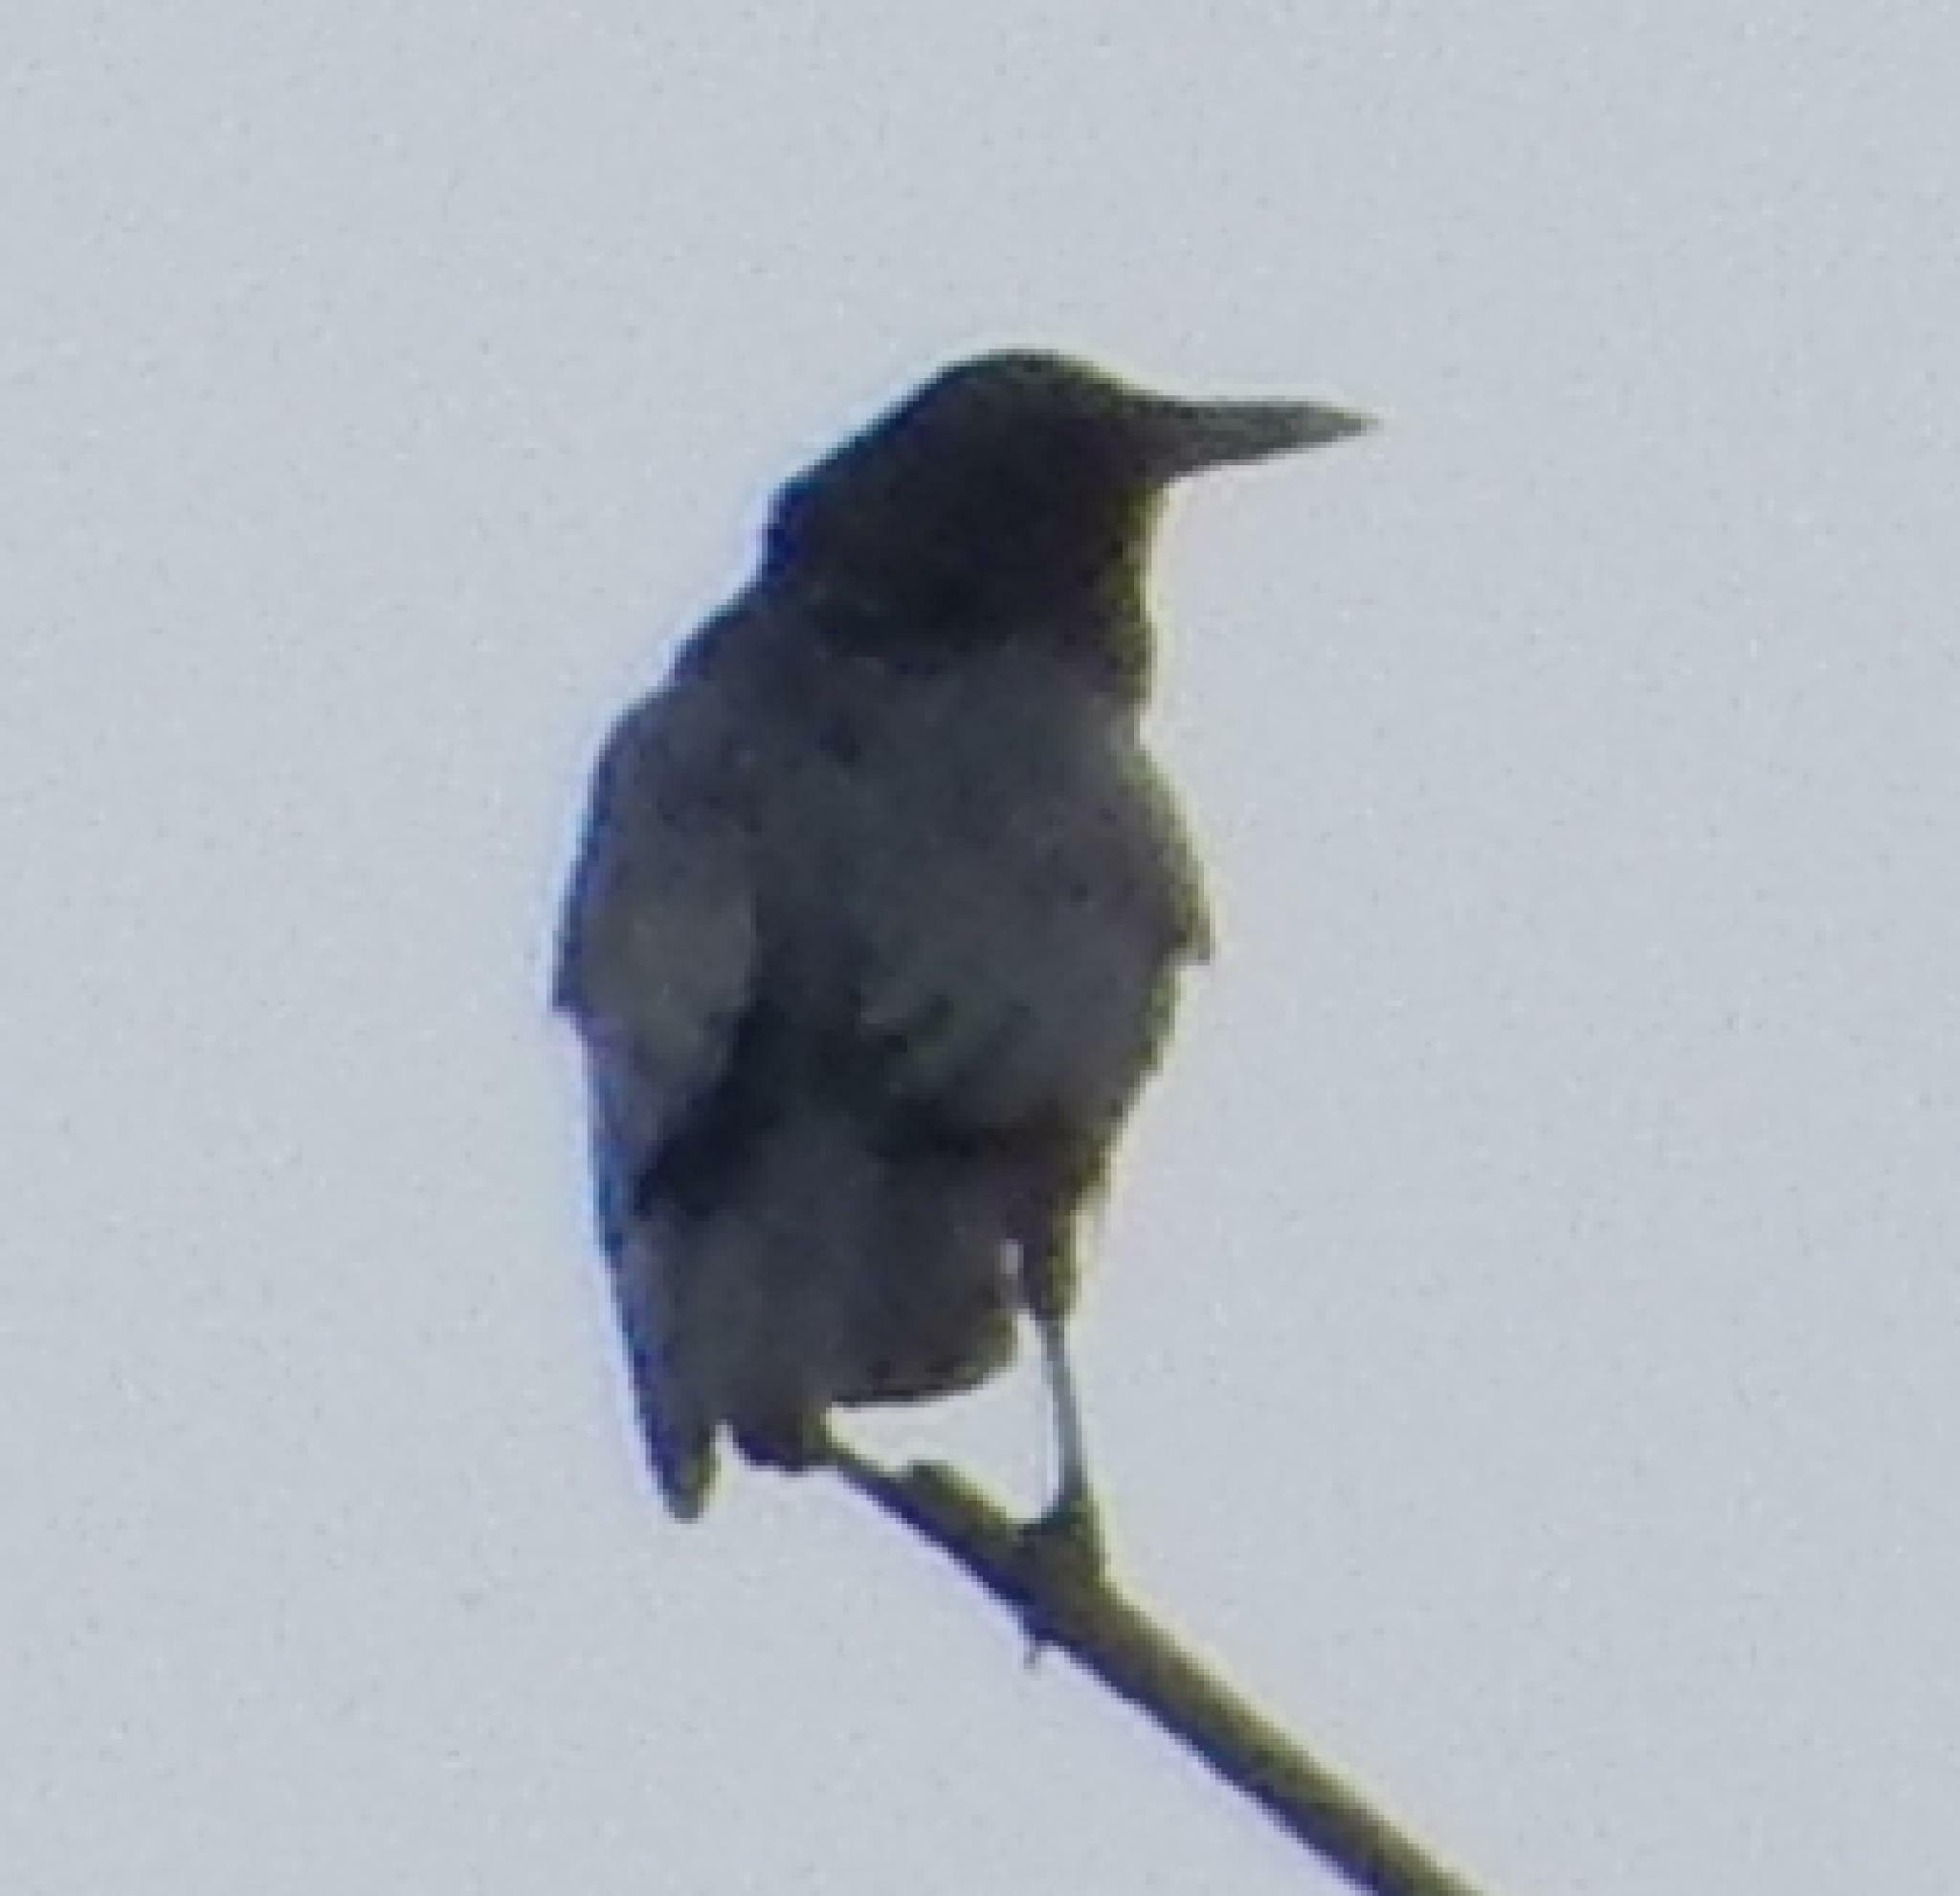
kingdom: Animalia
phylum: Chordata
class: Aves
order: Passeriformes
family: Corvidae
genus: Corvus
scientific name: Corvus capensis
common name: Cape crow
